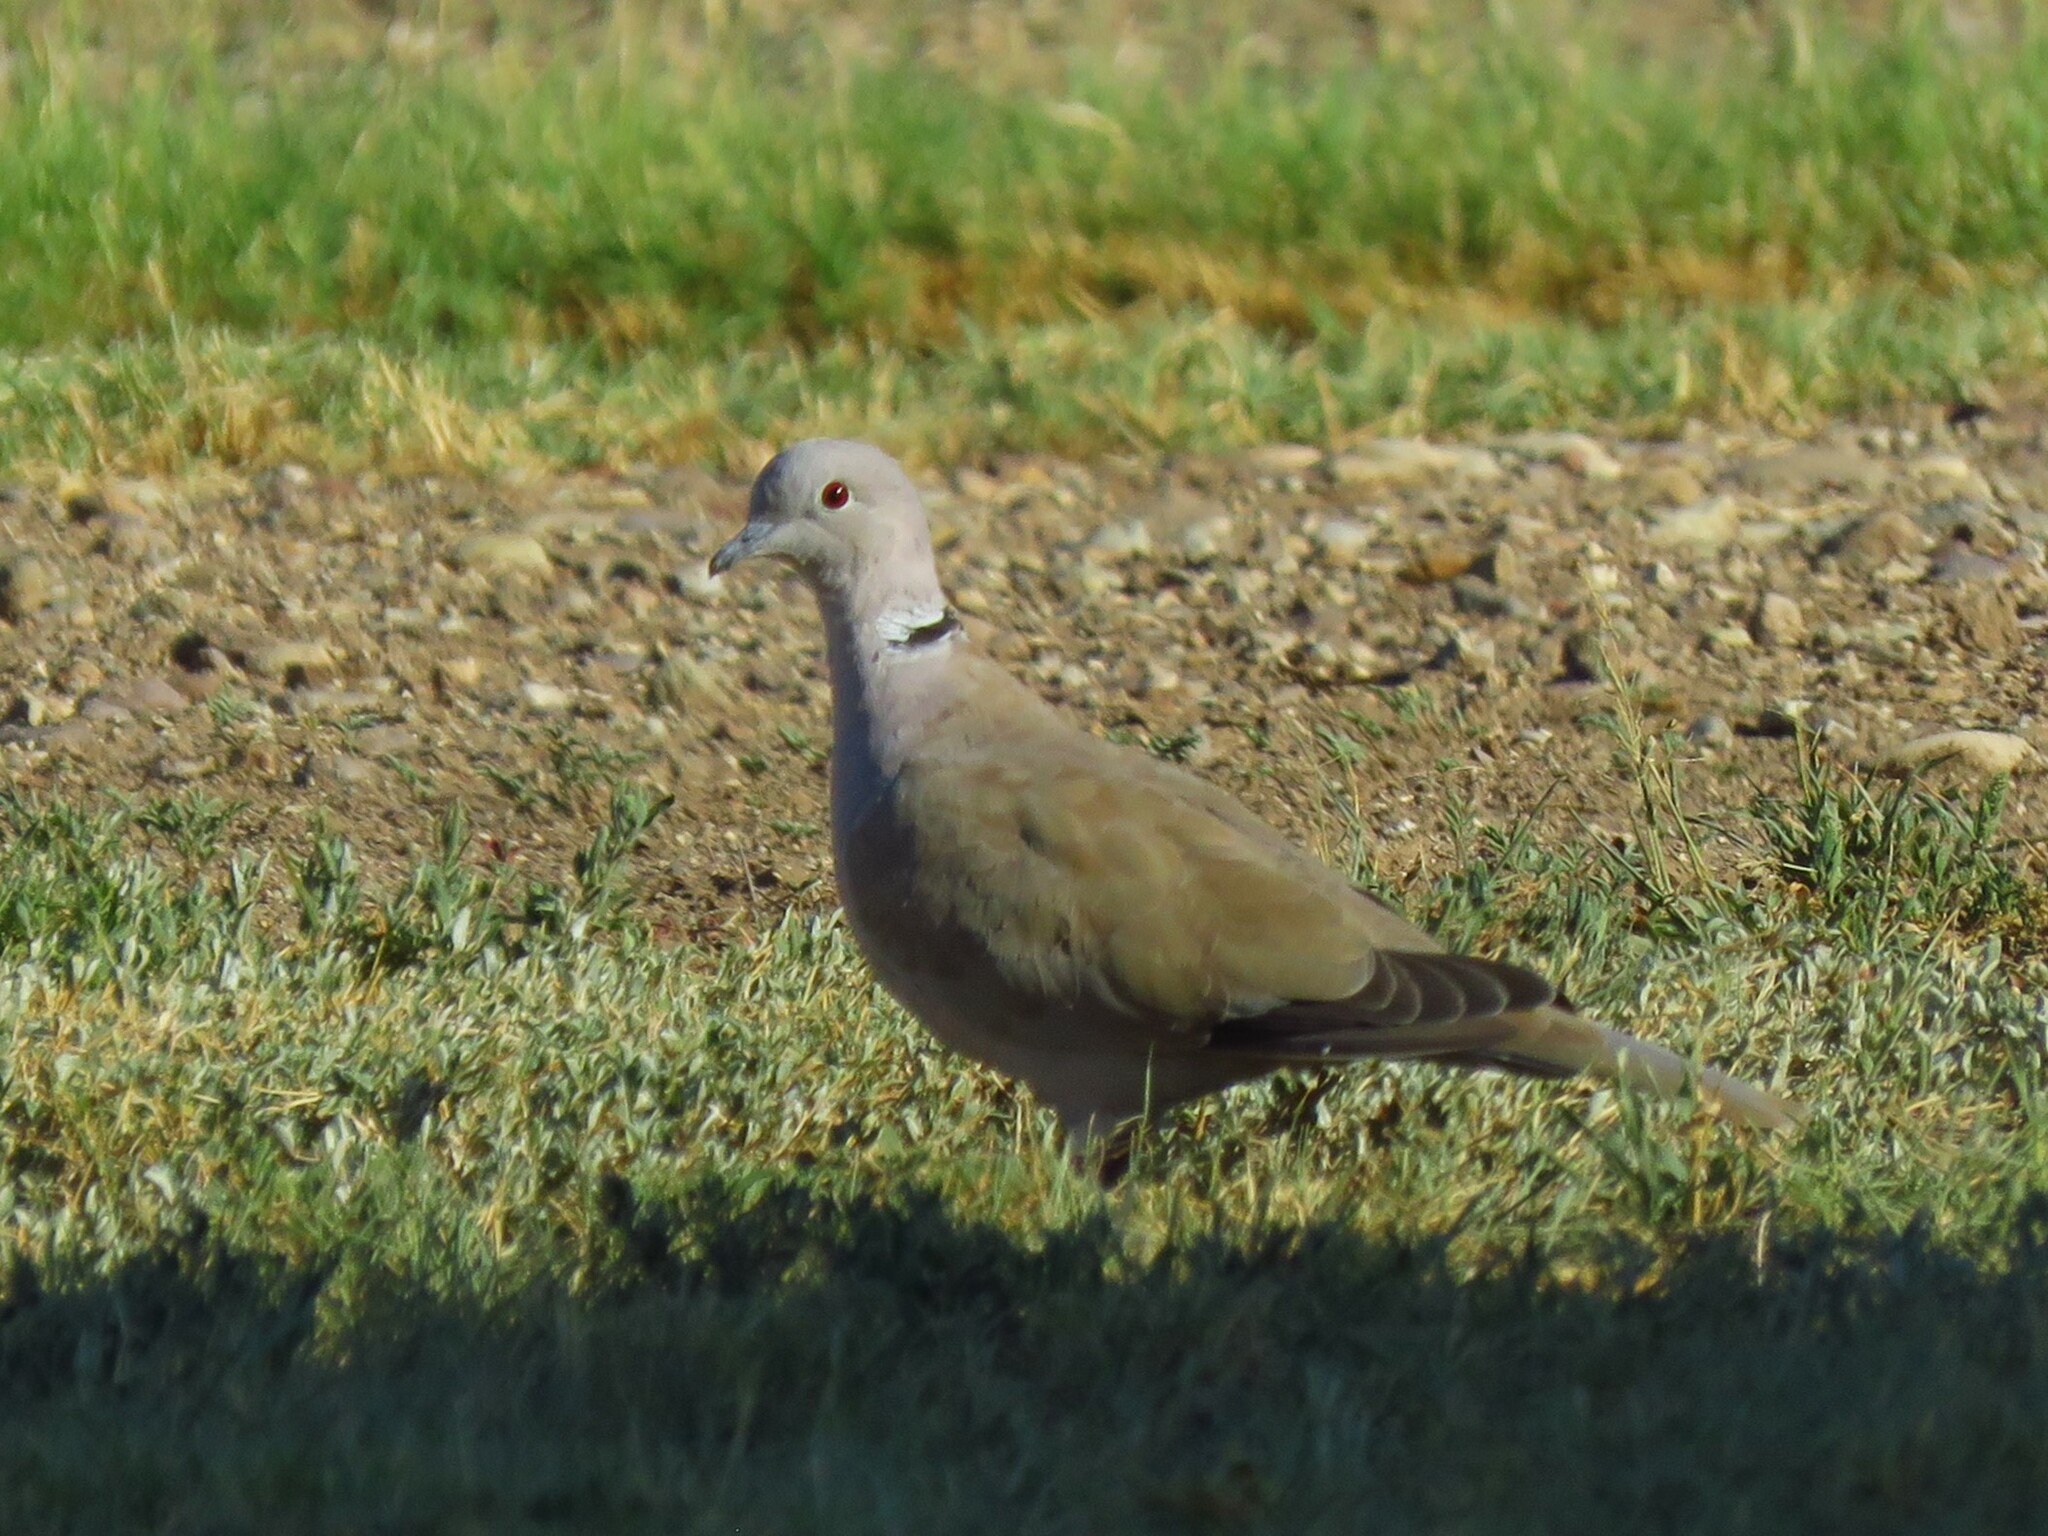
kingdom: Animalia
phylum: Chordata
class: Aves
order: Columbiformes
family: Columbidae
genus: Streptopelia
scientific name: Streptopelia decaocto
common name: Eurasian collared dove
